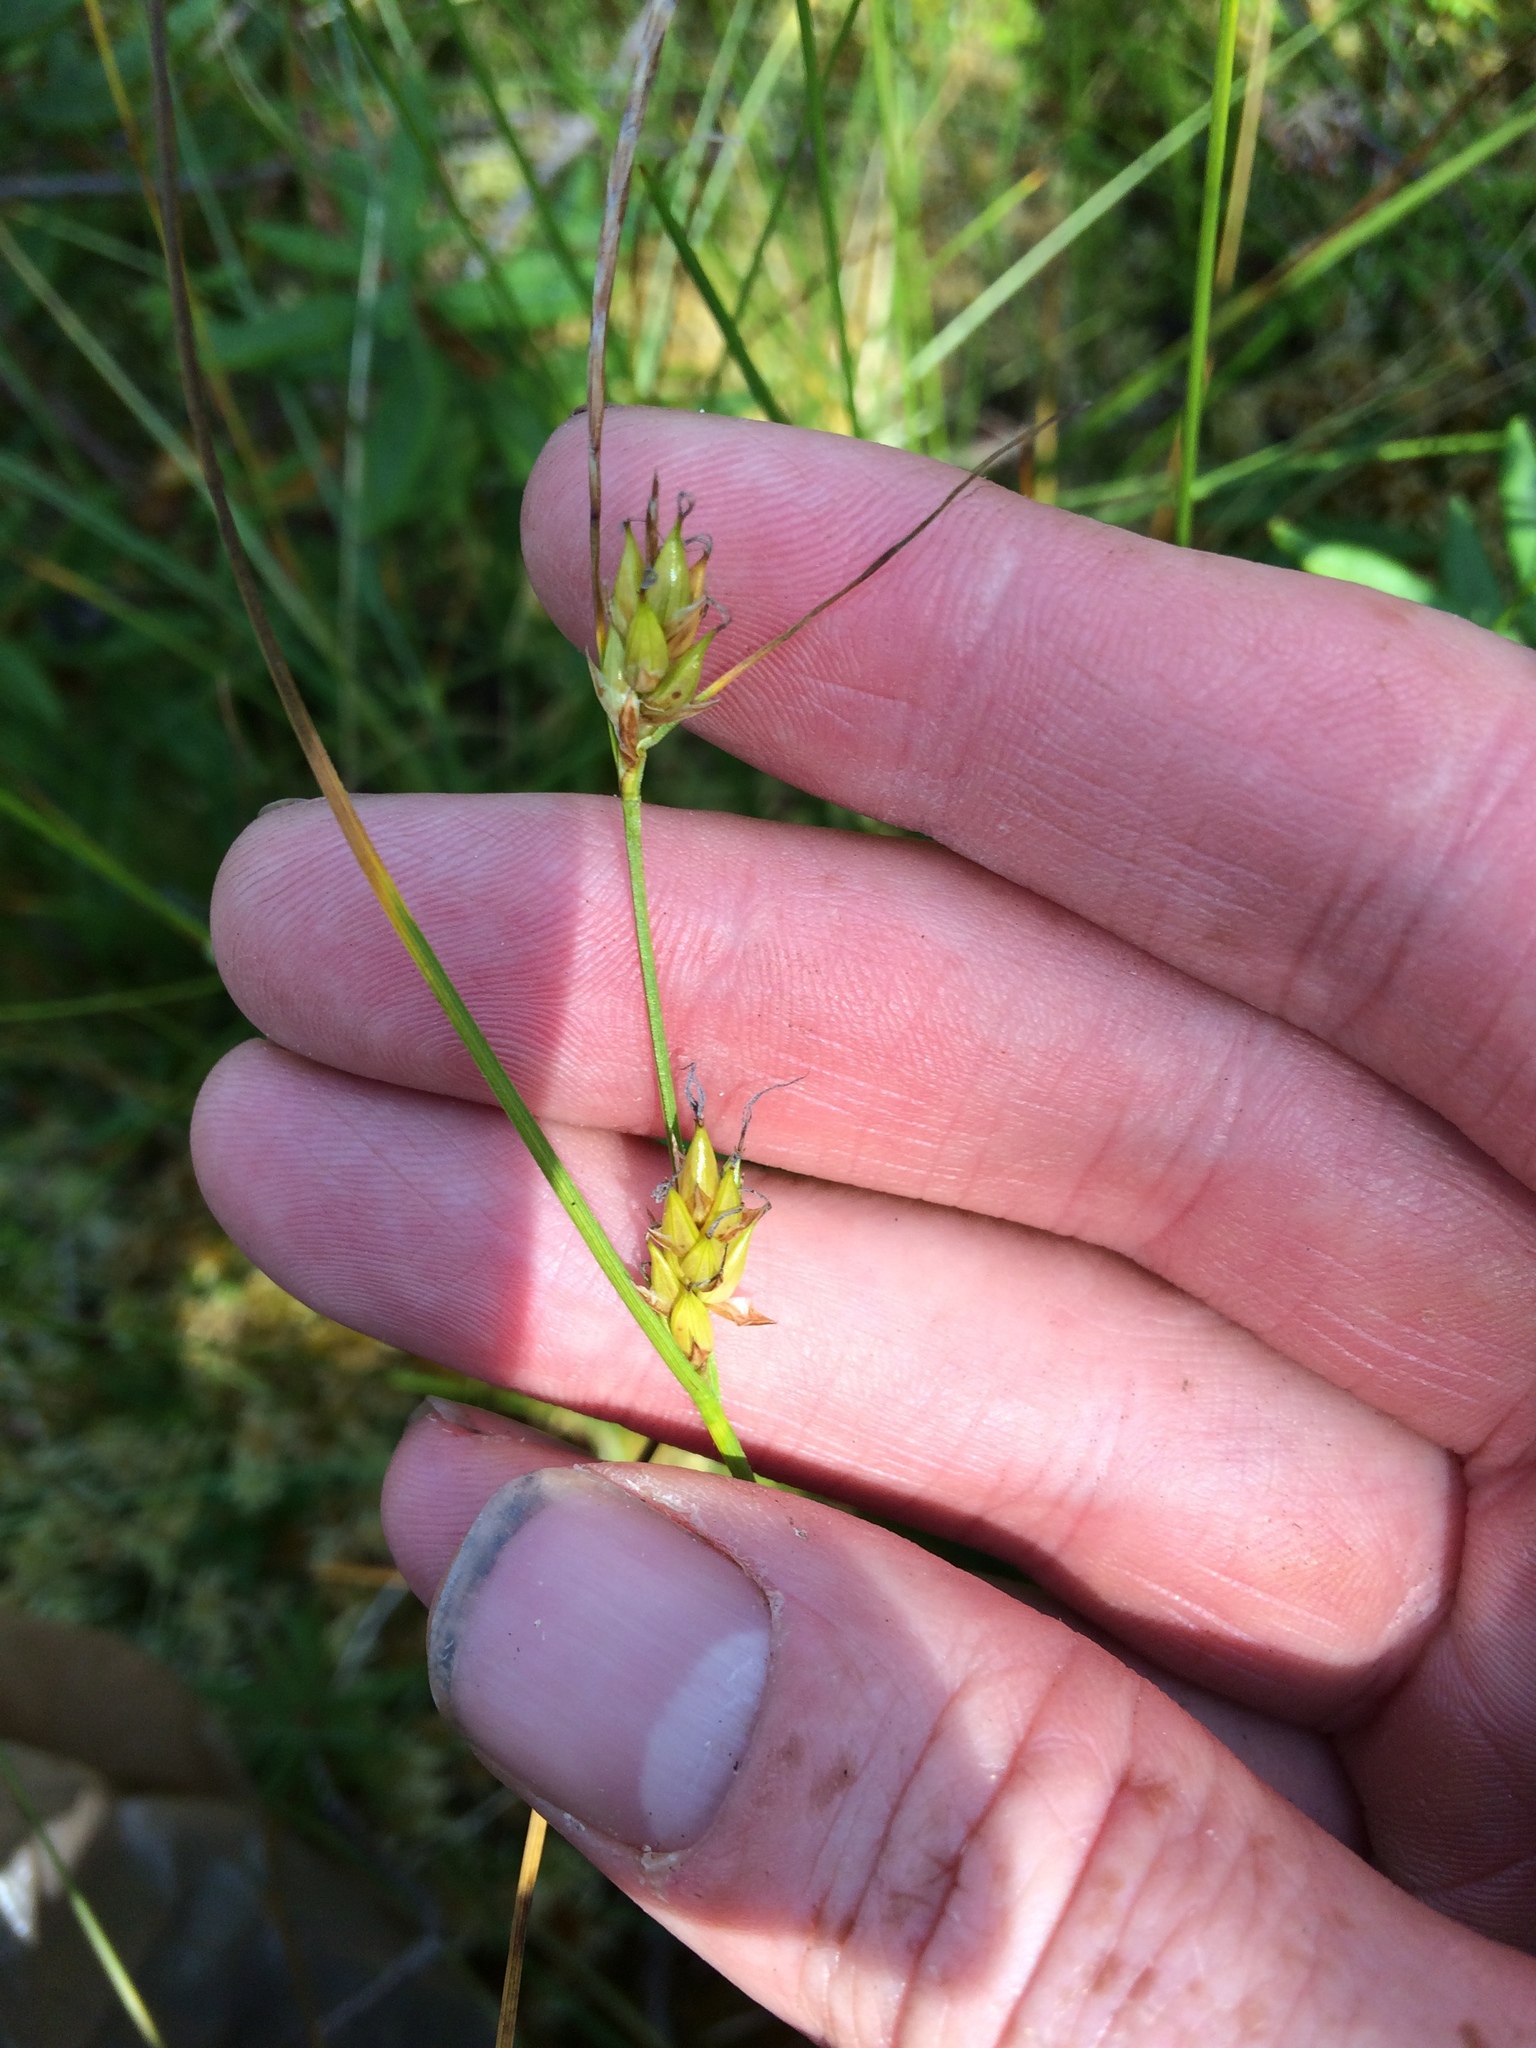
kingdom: Plantae
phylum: Tracheophyta
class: Liliopsida
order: Poales
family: Cyperaceae
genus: Carex
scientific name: Carex oligosperma
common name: Few-seed sedge
